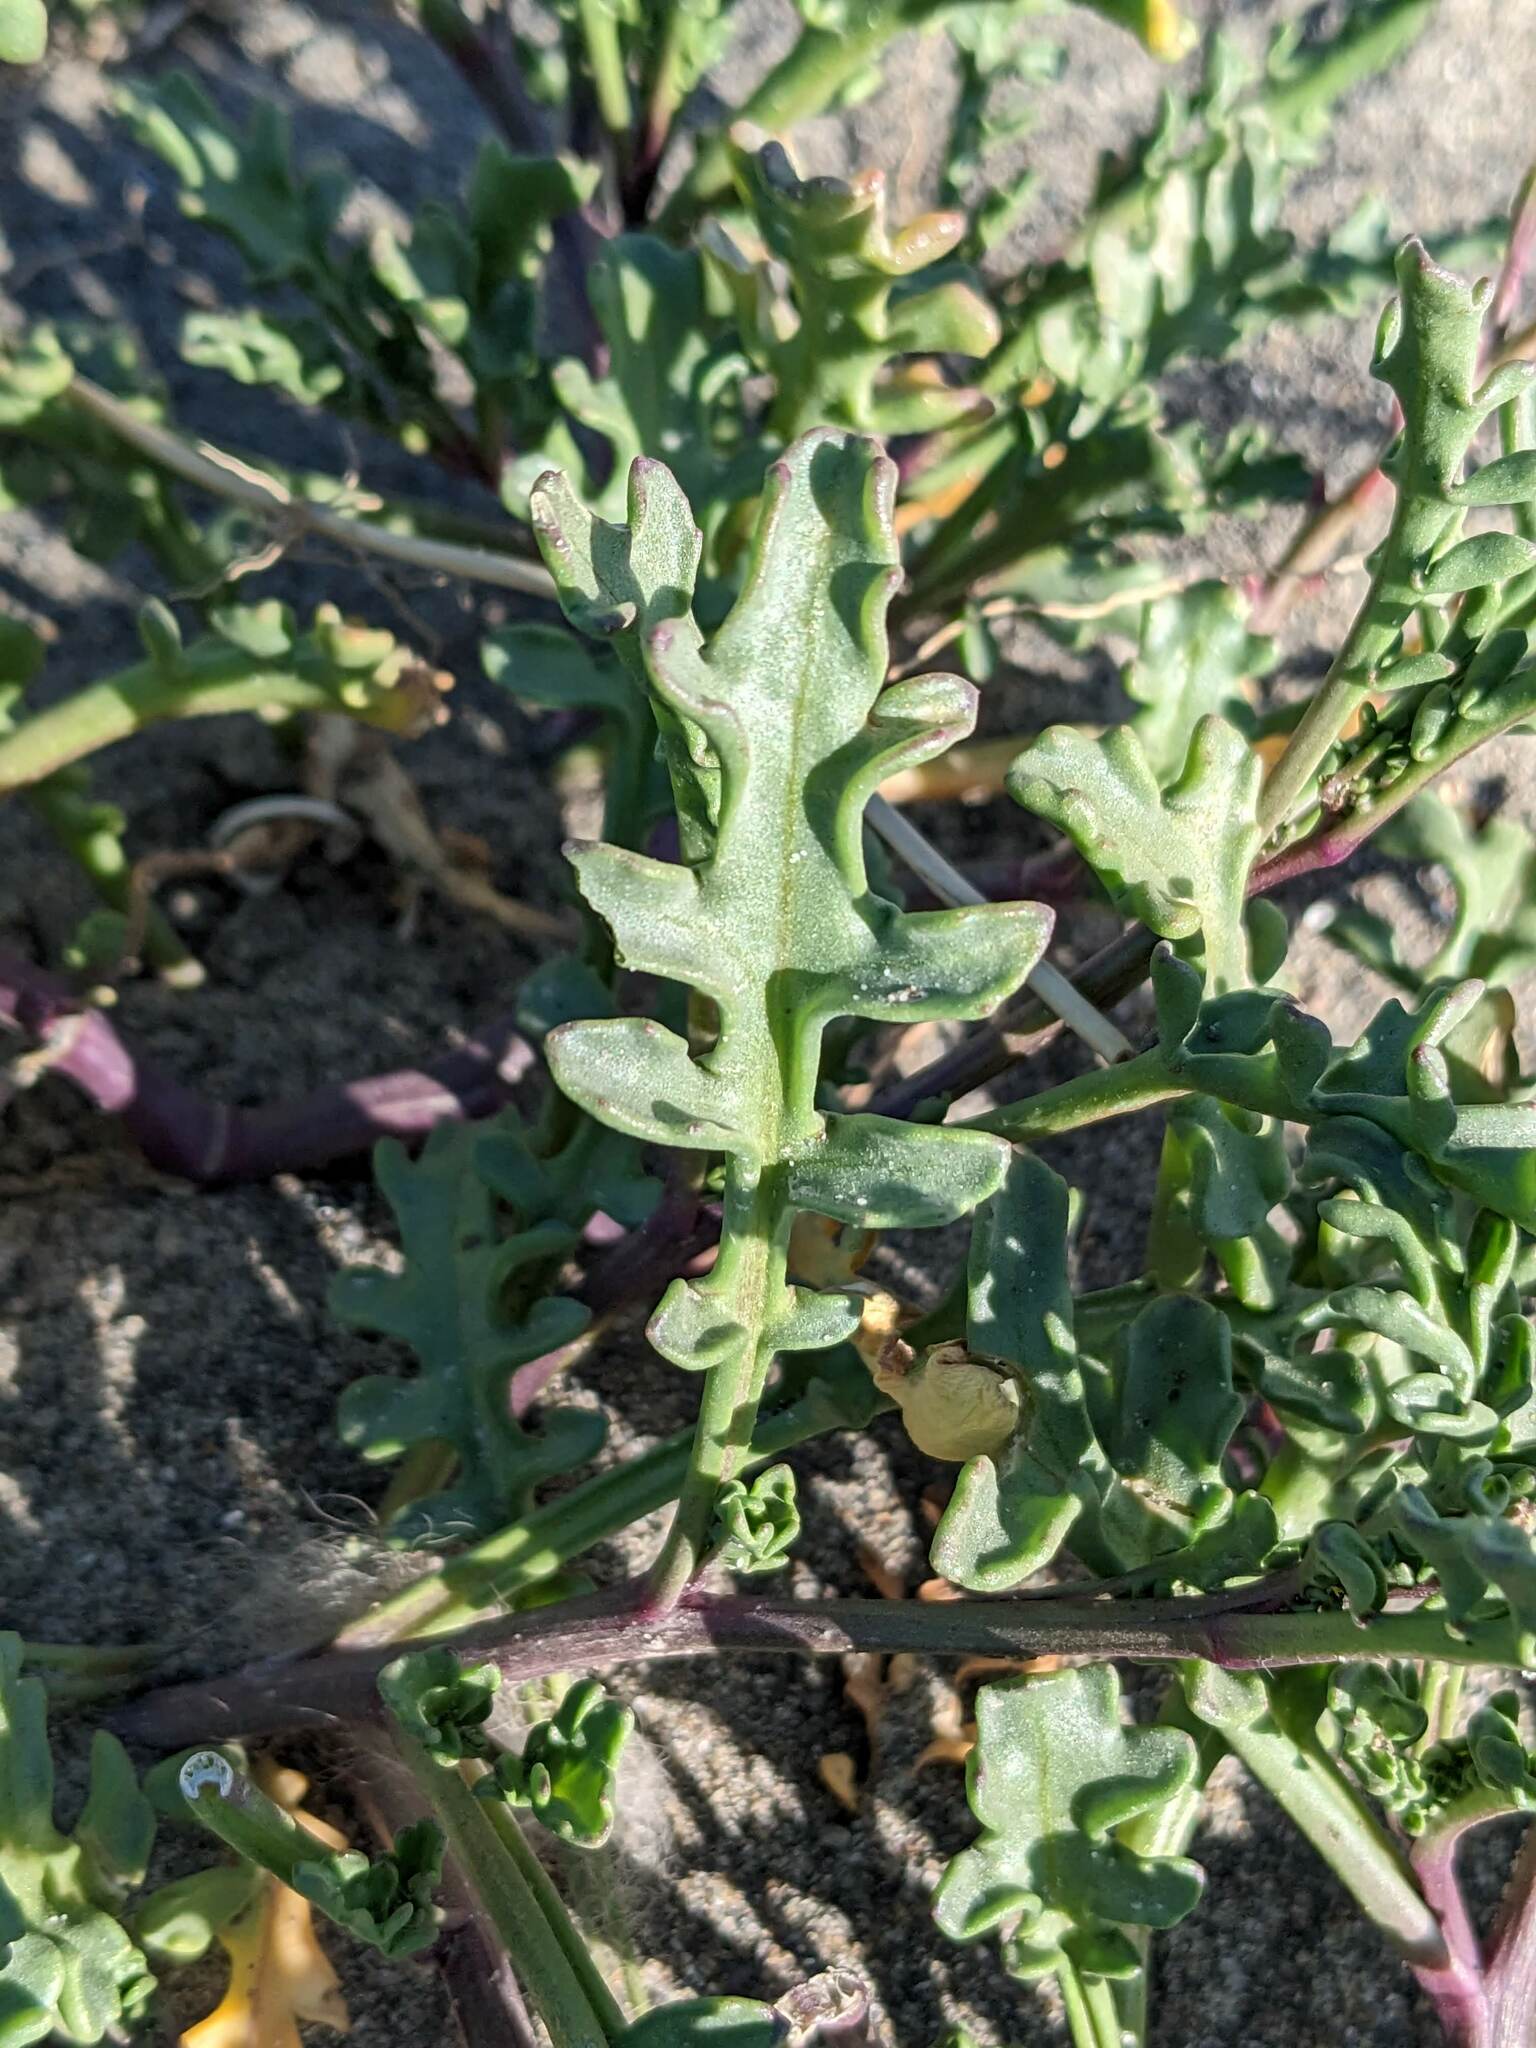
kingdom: Plantae
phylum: Tracheophyta
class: Magnoliopsida
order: Brassicales
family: Brassicaceae
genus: Cakile
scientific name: Cakile maritima
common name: Sea rocket
